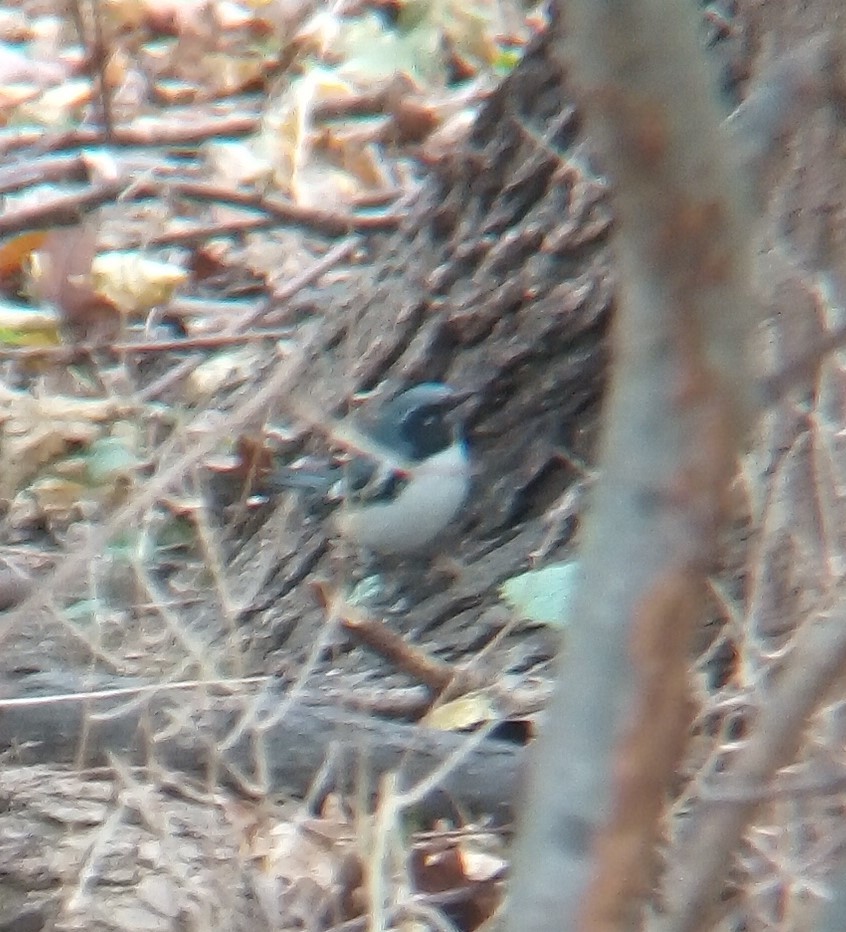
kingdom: Animalia
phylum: Chordata
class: Aves
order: Passeriformes
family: Parulidae
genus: Setophaga
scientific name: Setophaga caerulescens
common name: Black-throated blue warbler
